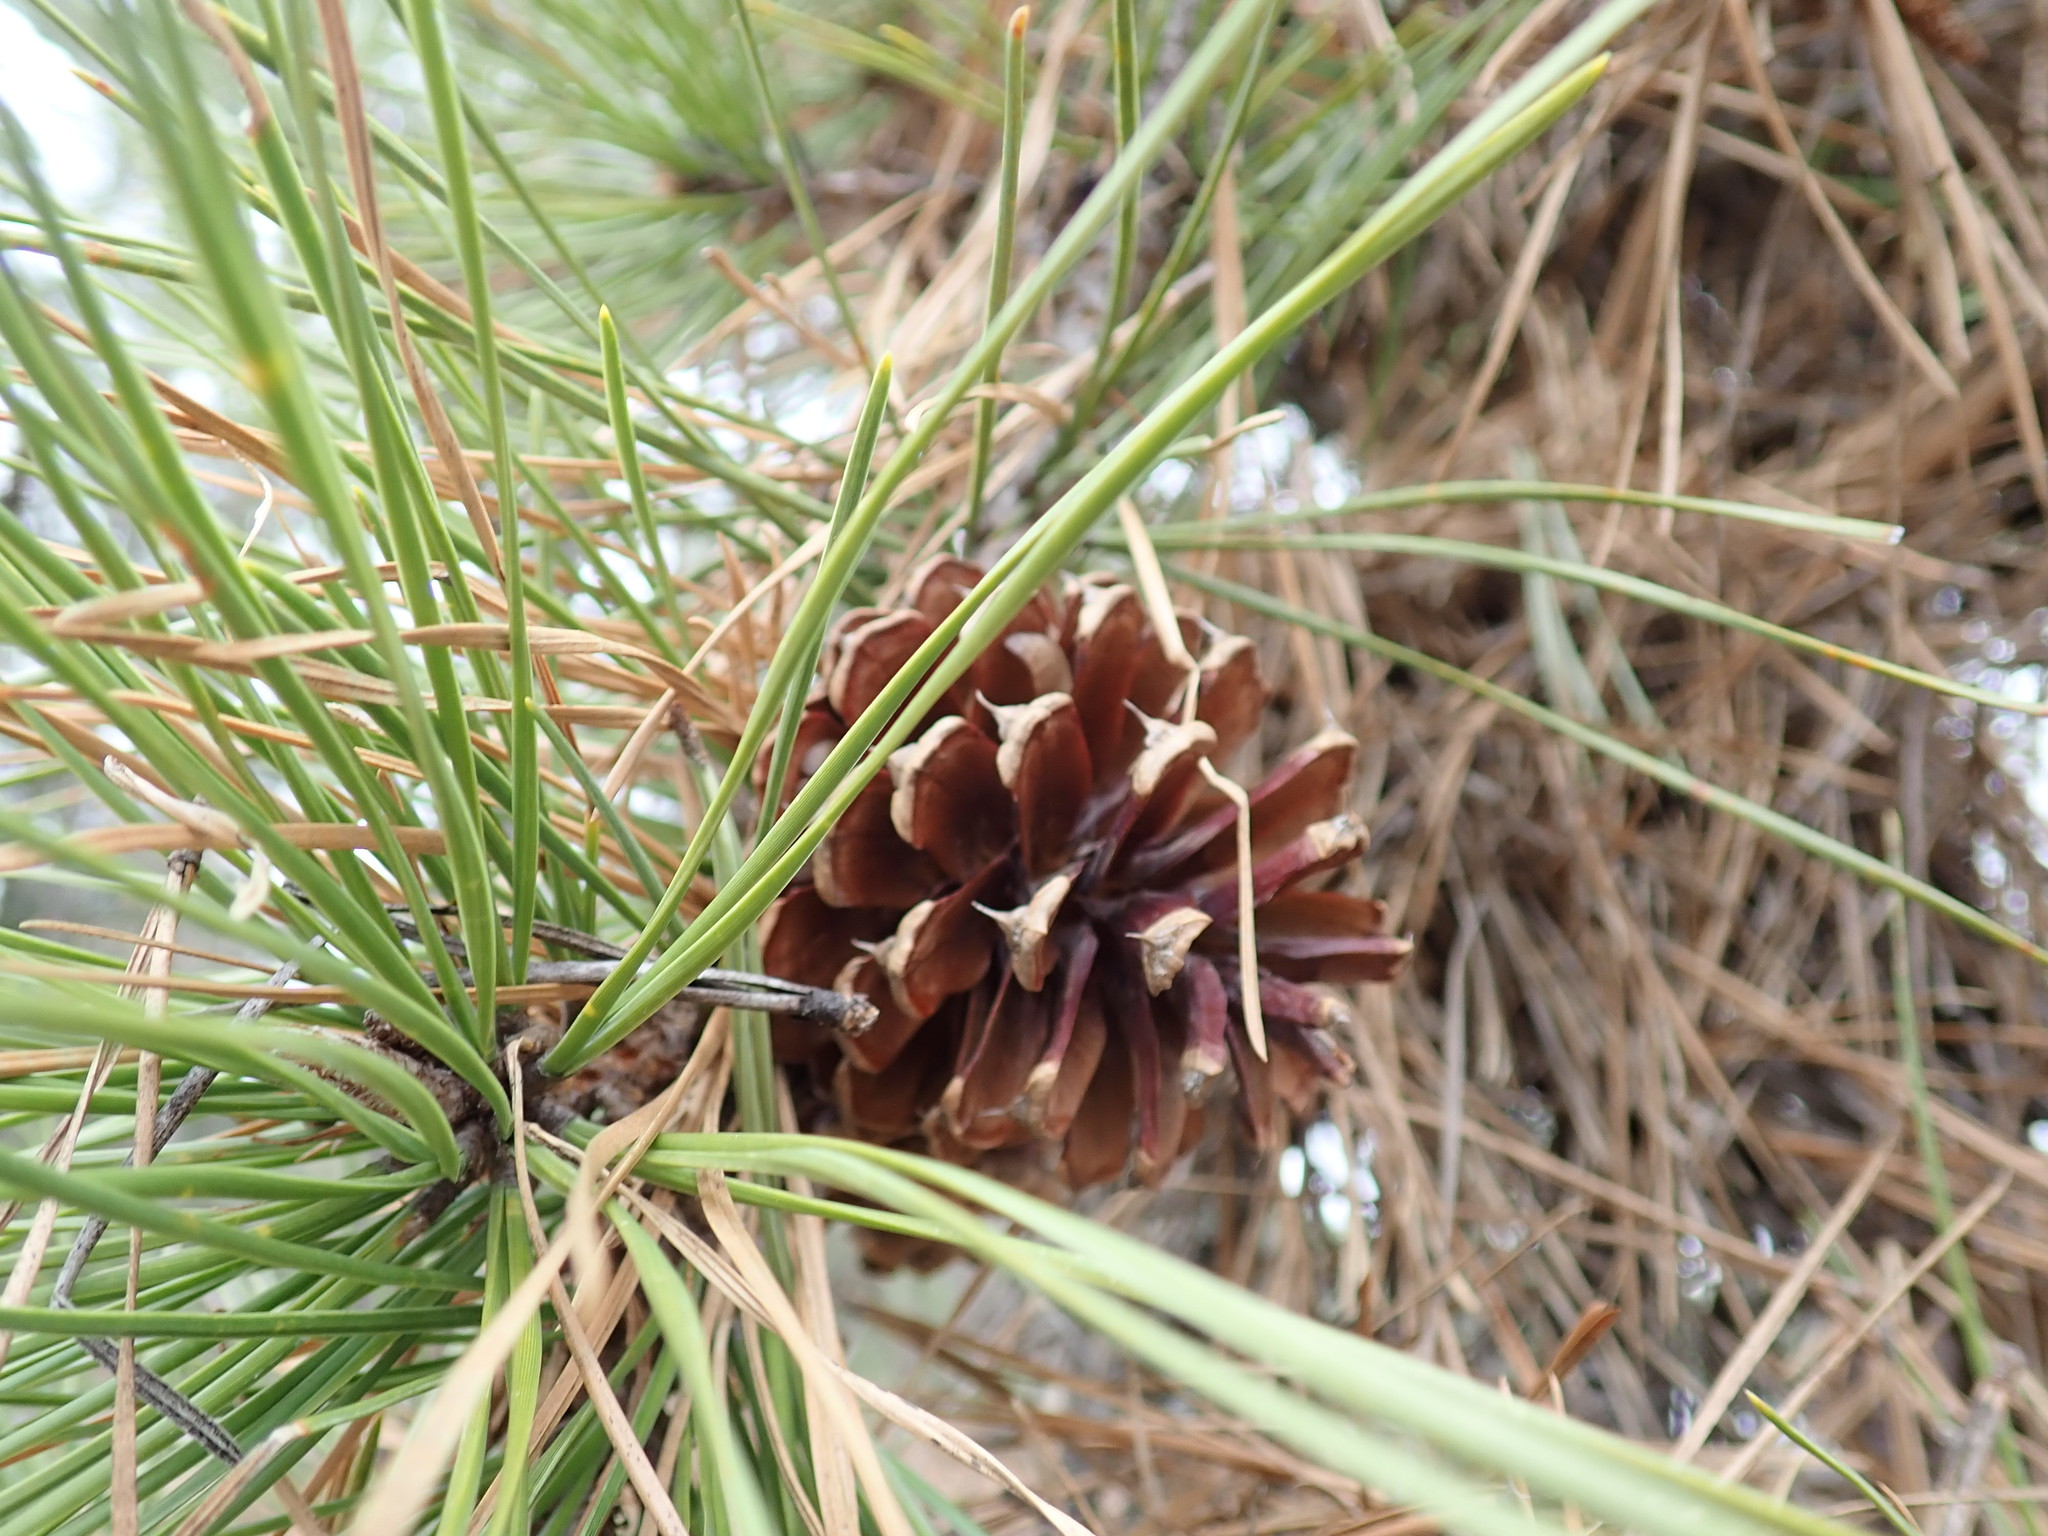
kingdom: Plantae
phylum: Tracheophyta
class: Pinopsida
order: Pinales
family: Pinaceae
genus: Pinus
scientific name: Pinus rigida
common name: Pitch pine
